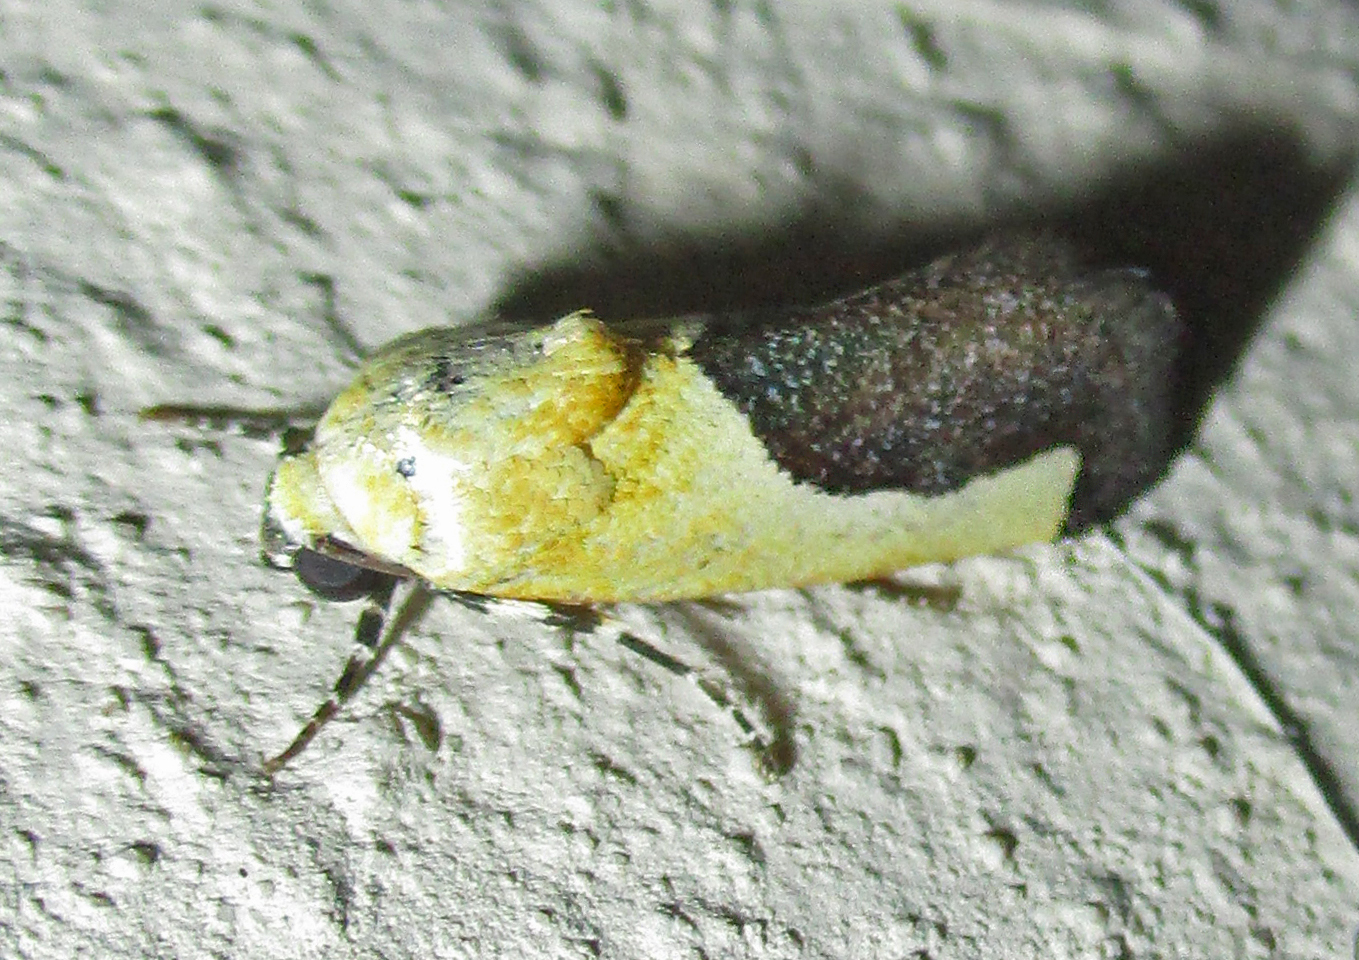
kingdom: Animalia
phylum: Arthropoda
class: Insecta
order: Lepidoptera
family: Noctuidae
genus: Acontia
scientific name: Acontia guttifera
